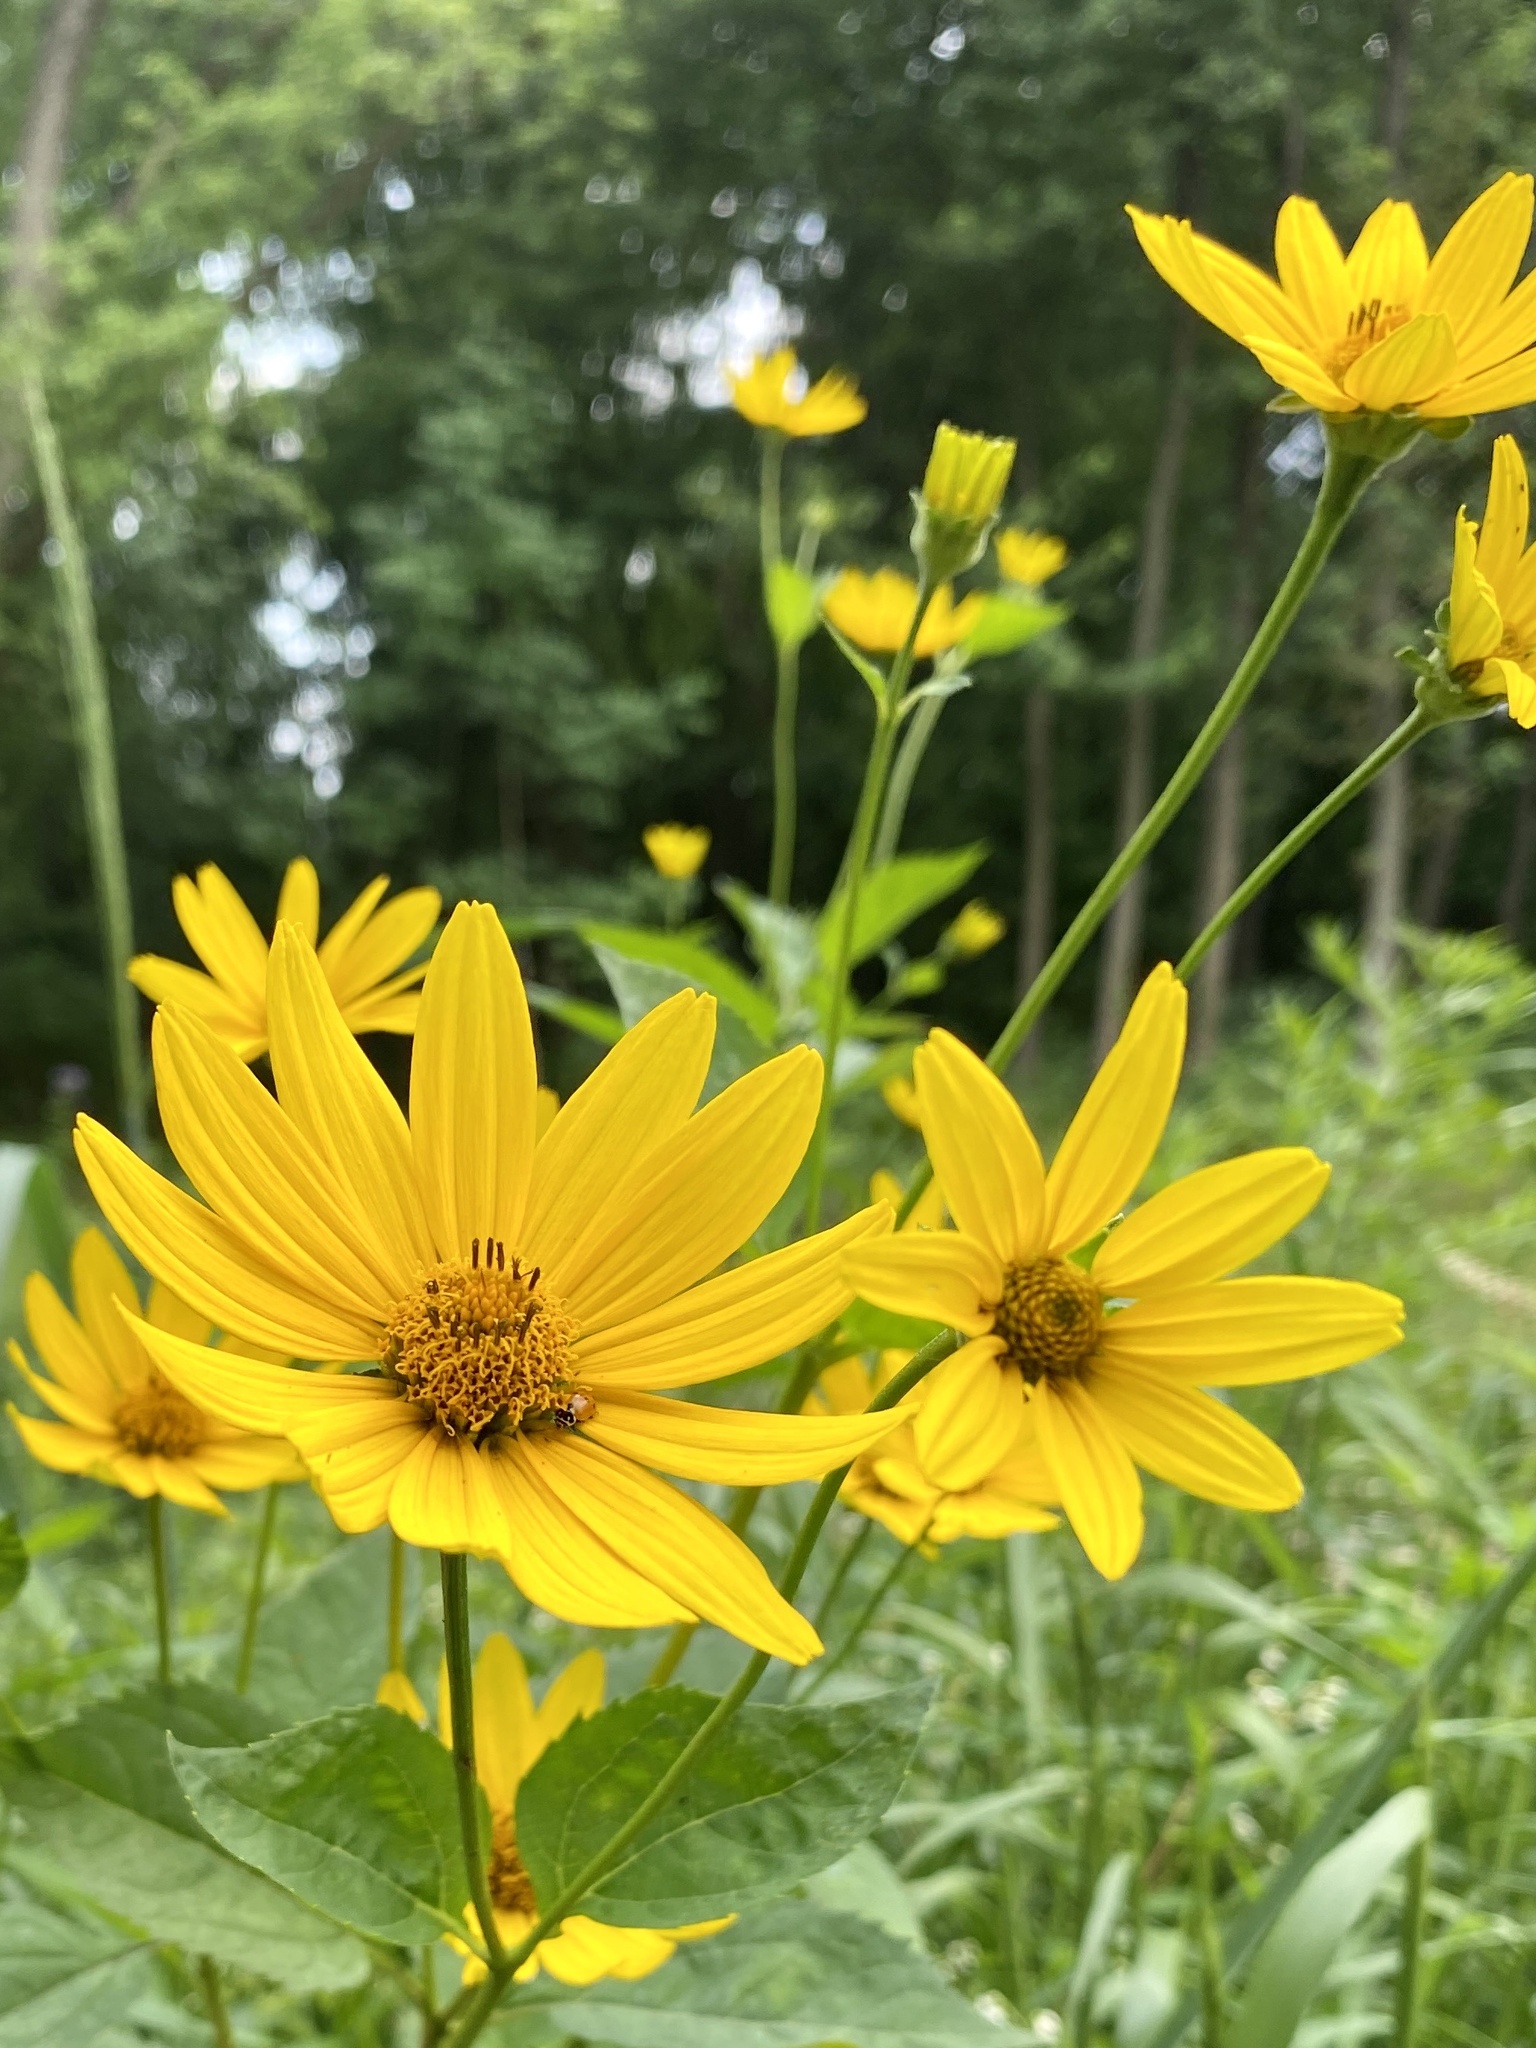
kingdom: Plantae
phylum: Tracheophyta
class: Magnoliopsida
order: Asterales
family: Asteraceae
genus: Heliopsis
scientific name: Heliopsis helianthoides
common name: False sunflower
